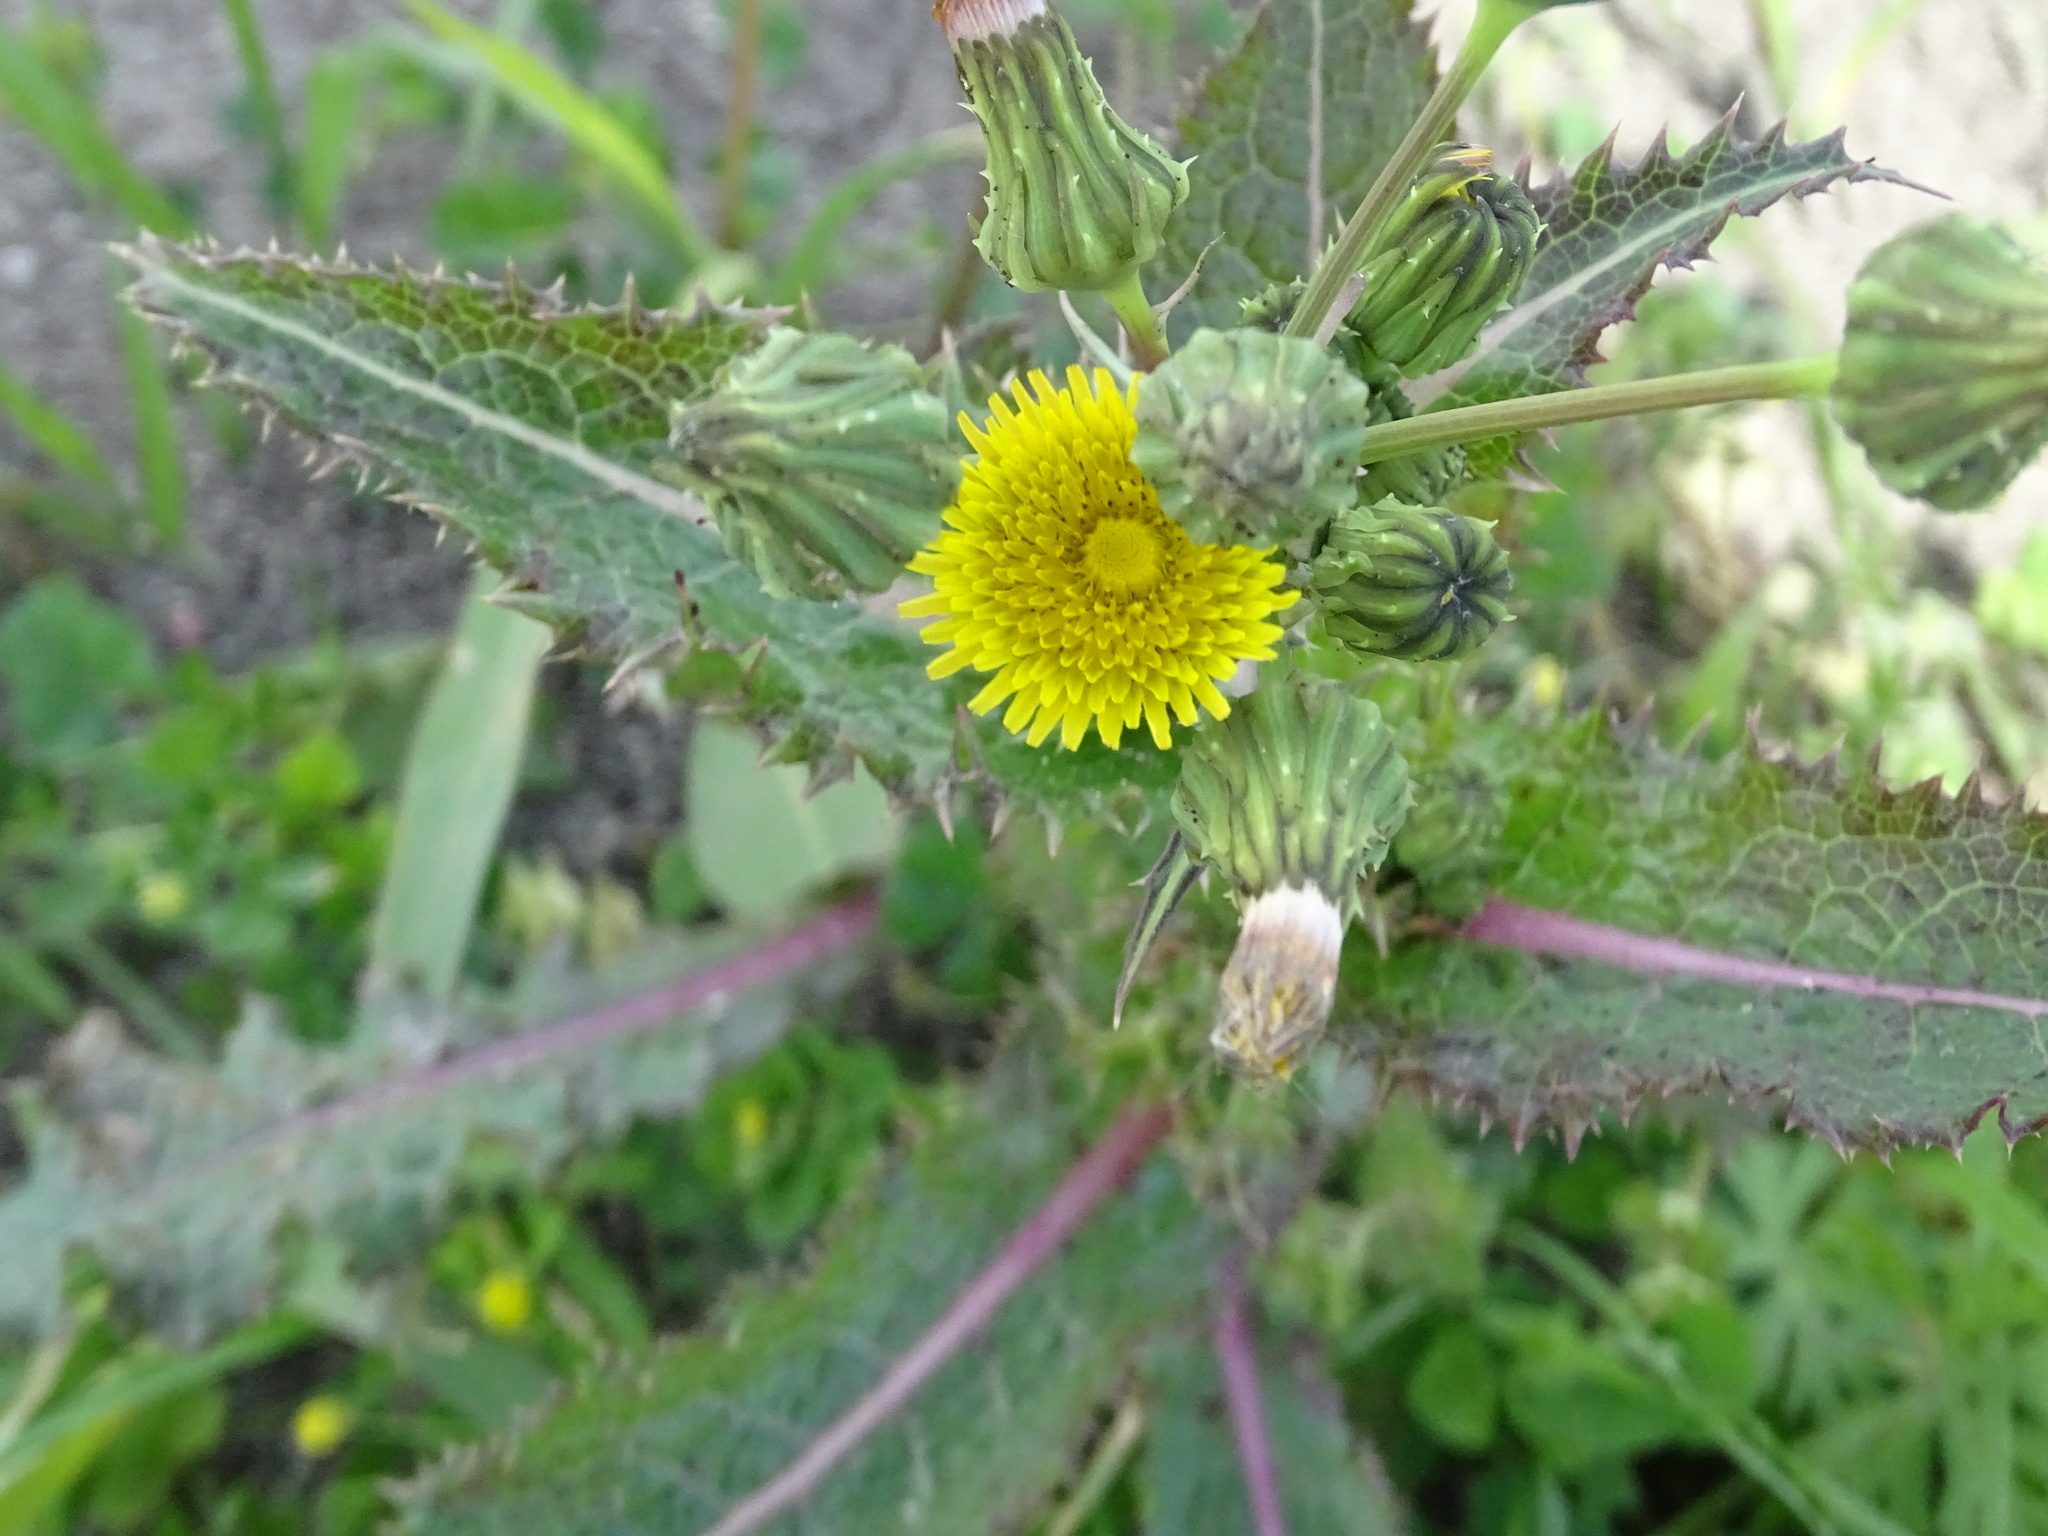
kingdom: Plantae
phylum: Tracheophyta
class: Magnoliopsida
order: Asterales
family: Asteraceae
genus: Sonchus
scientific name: Sonchus asper
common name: Prickly sow-thistle
